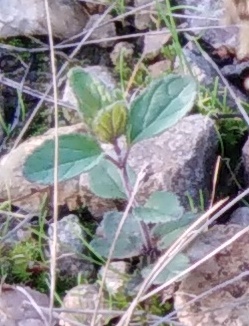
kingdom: Plantae
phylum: Tracheophyta
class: Magnoliopsida
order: Lamiales
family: Plantaginaceae
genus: Veronica
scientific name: Veronica chamaedrys
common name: Germander speedwell
